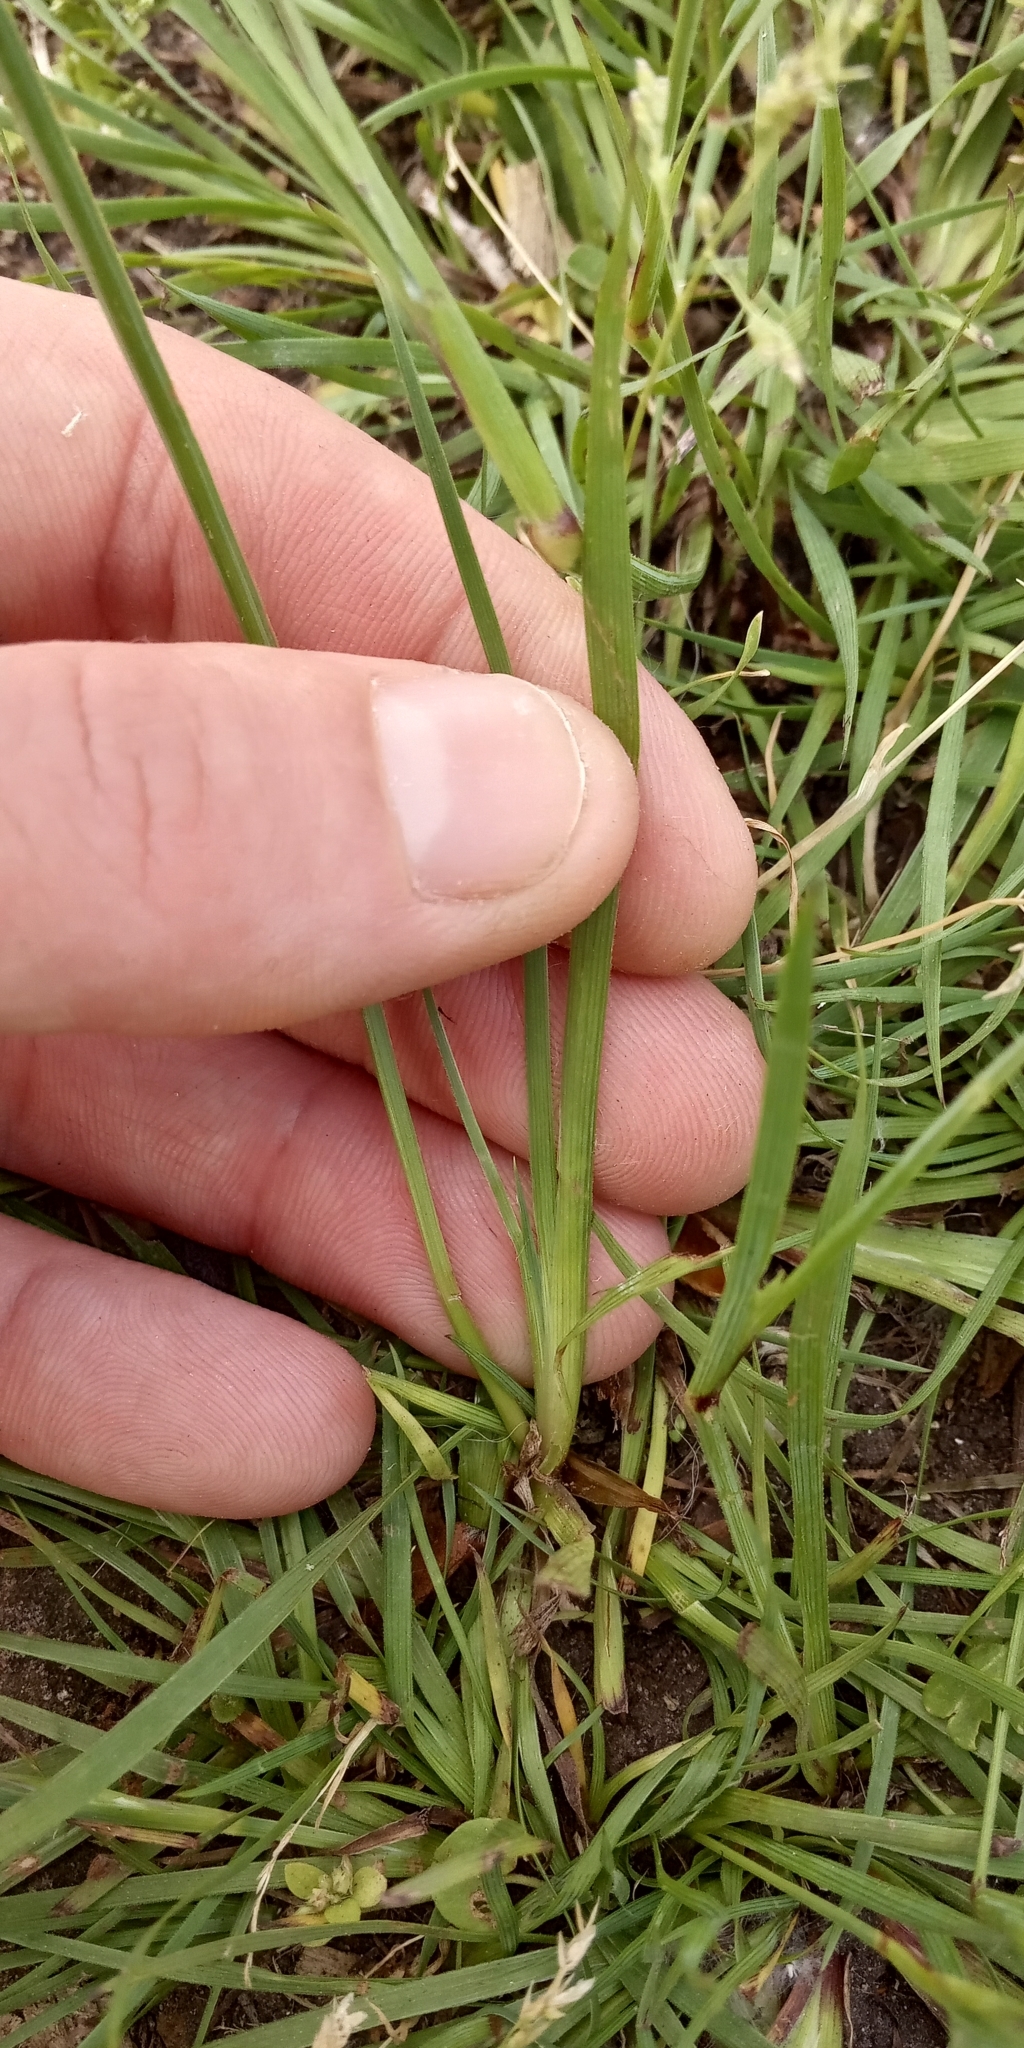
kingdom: Plantae
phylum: Tracheophyta
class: Liliopsida
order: Asparagales
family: Iridaceae
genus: Sisyrinchium
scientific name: Sisyrinchium chilense
